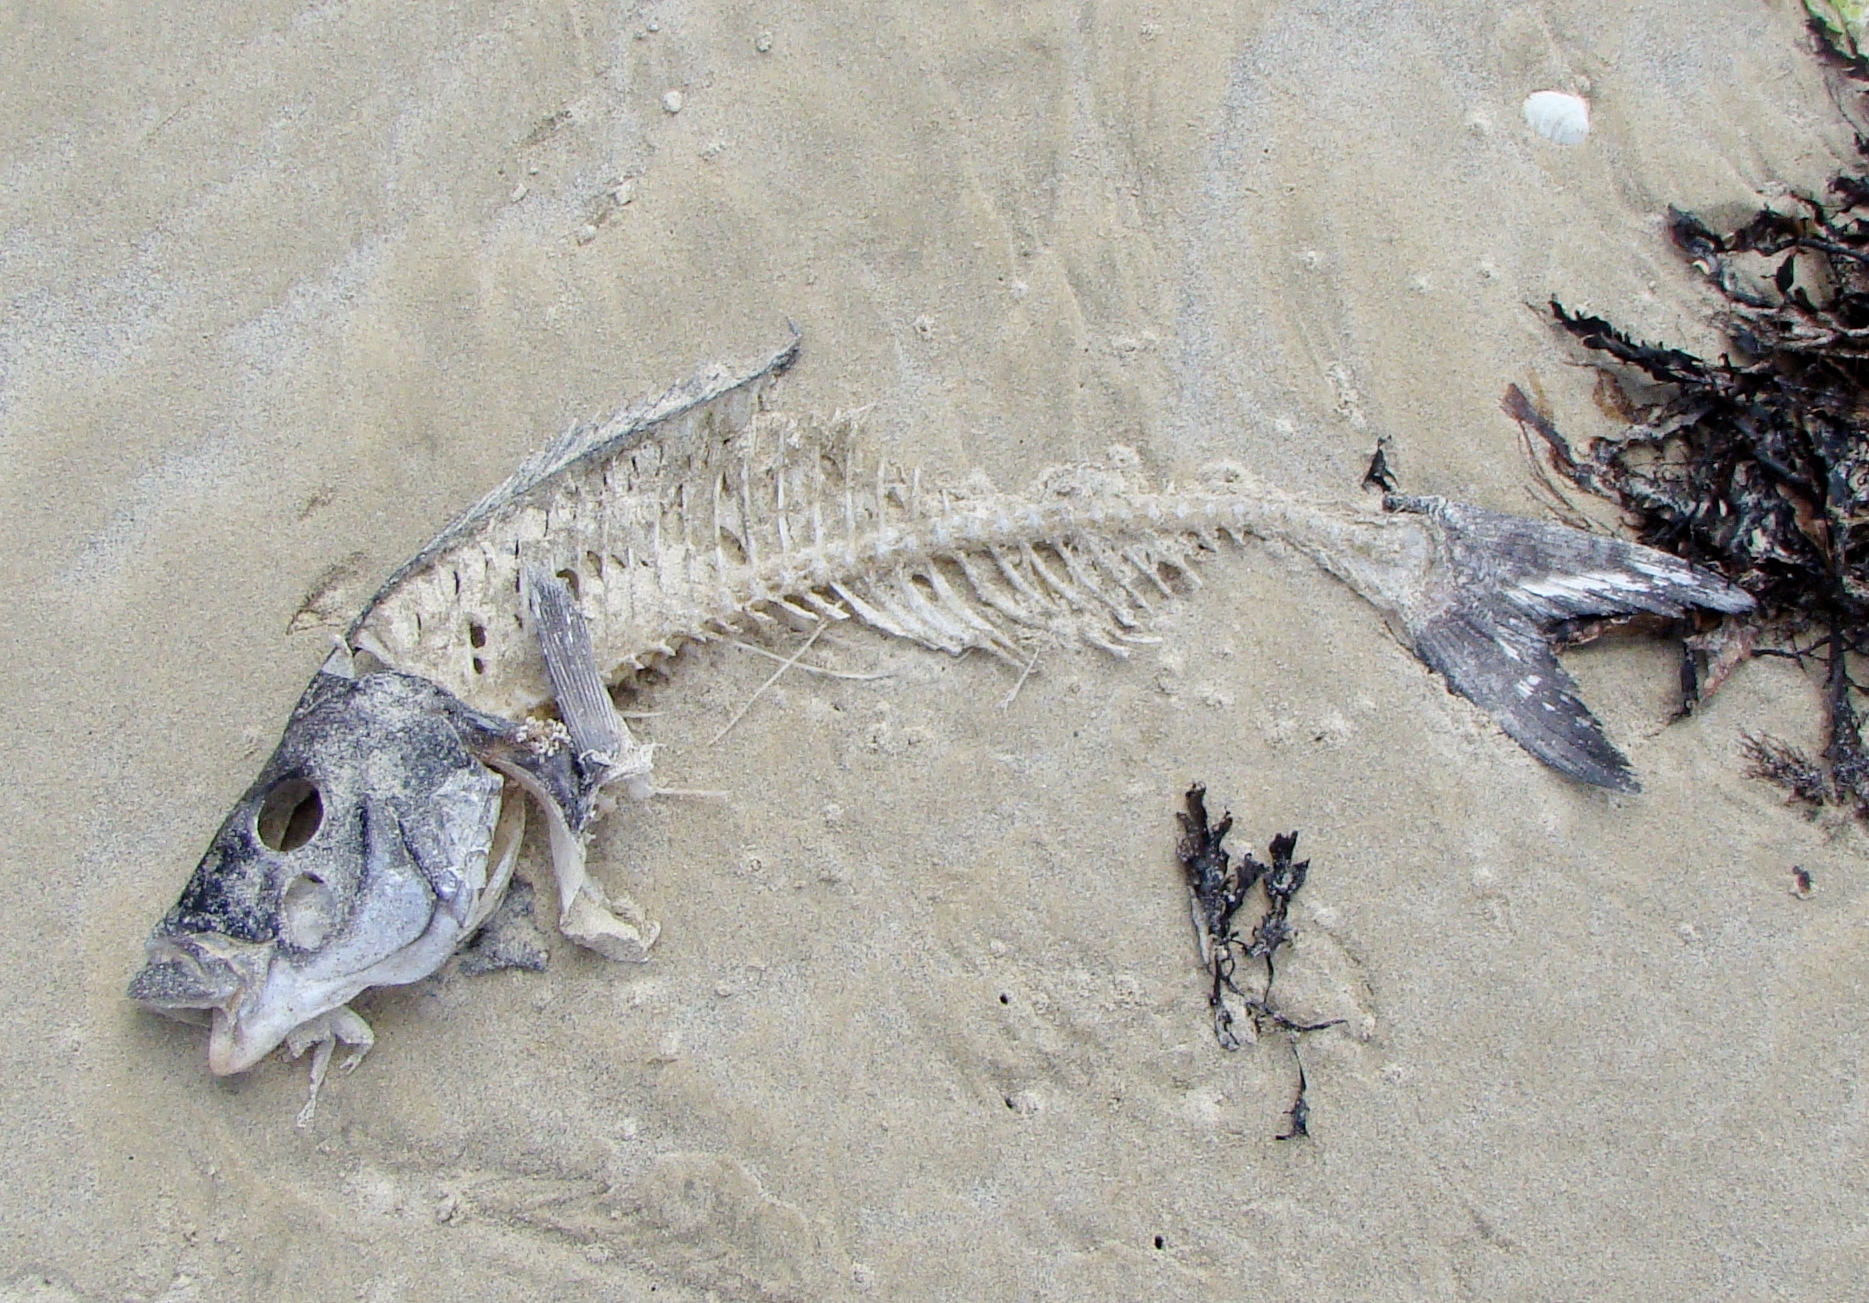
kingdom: Animalia
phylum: Chordata
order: Perciformes
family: Latridae
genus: Latridopsis
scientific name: Latridopsis ciliaris
